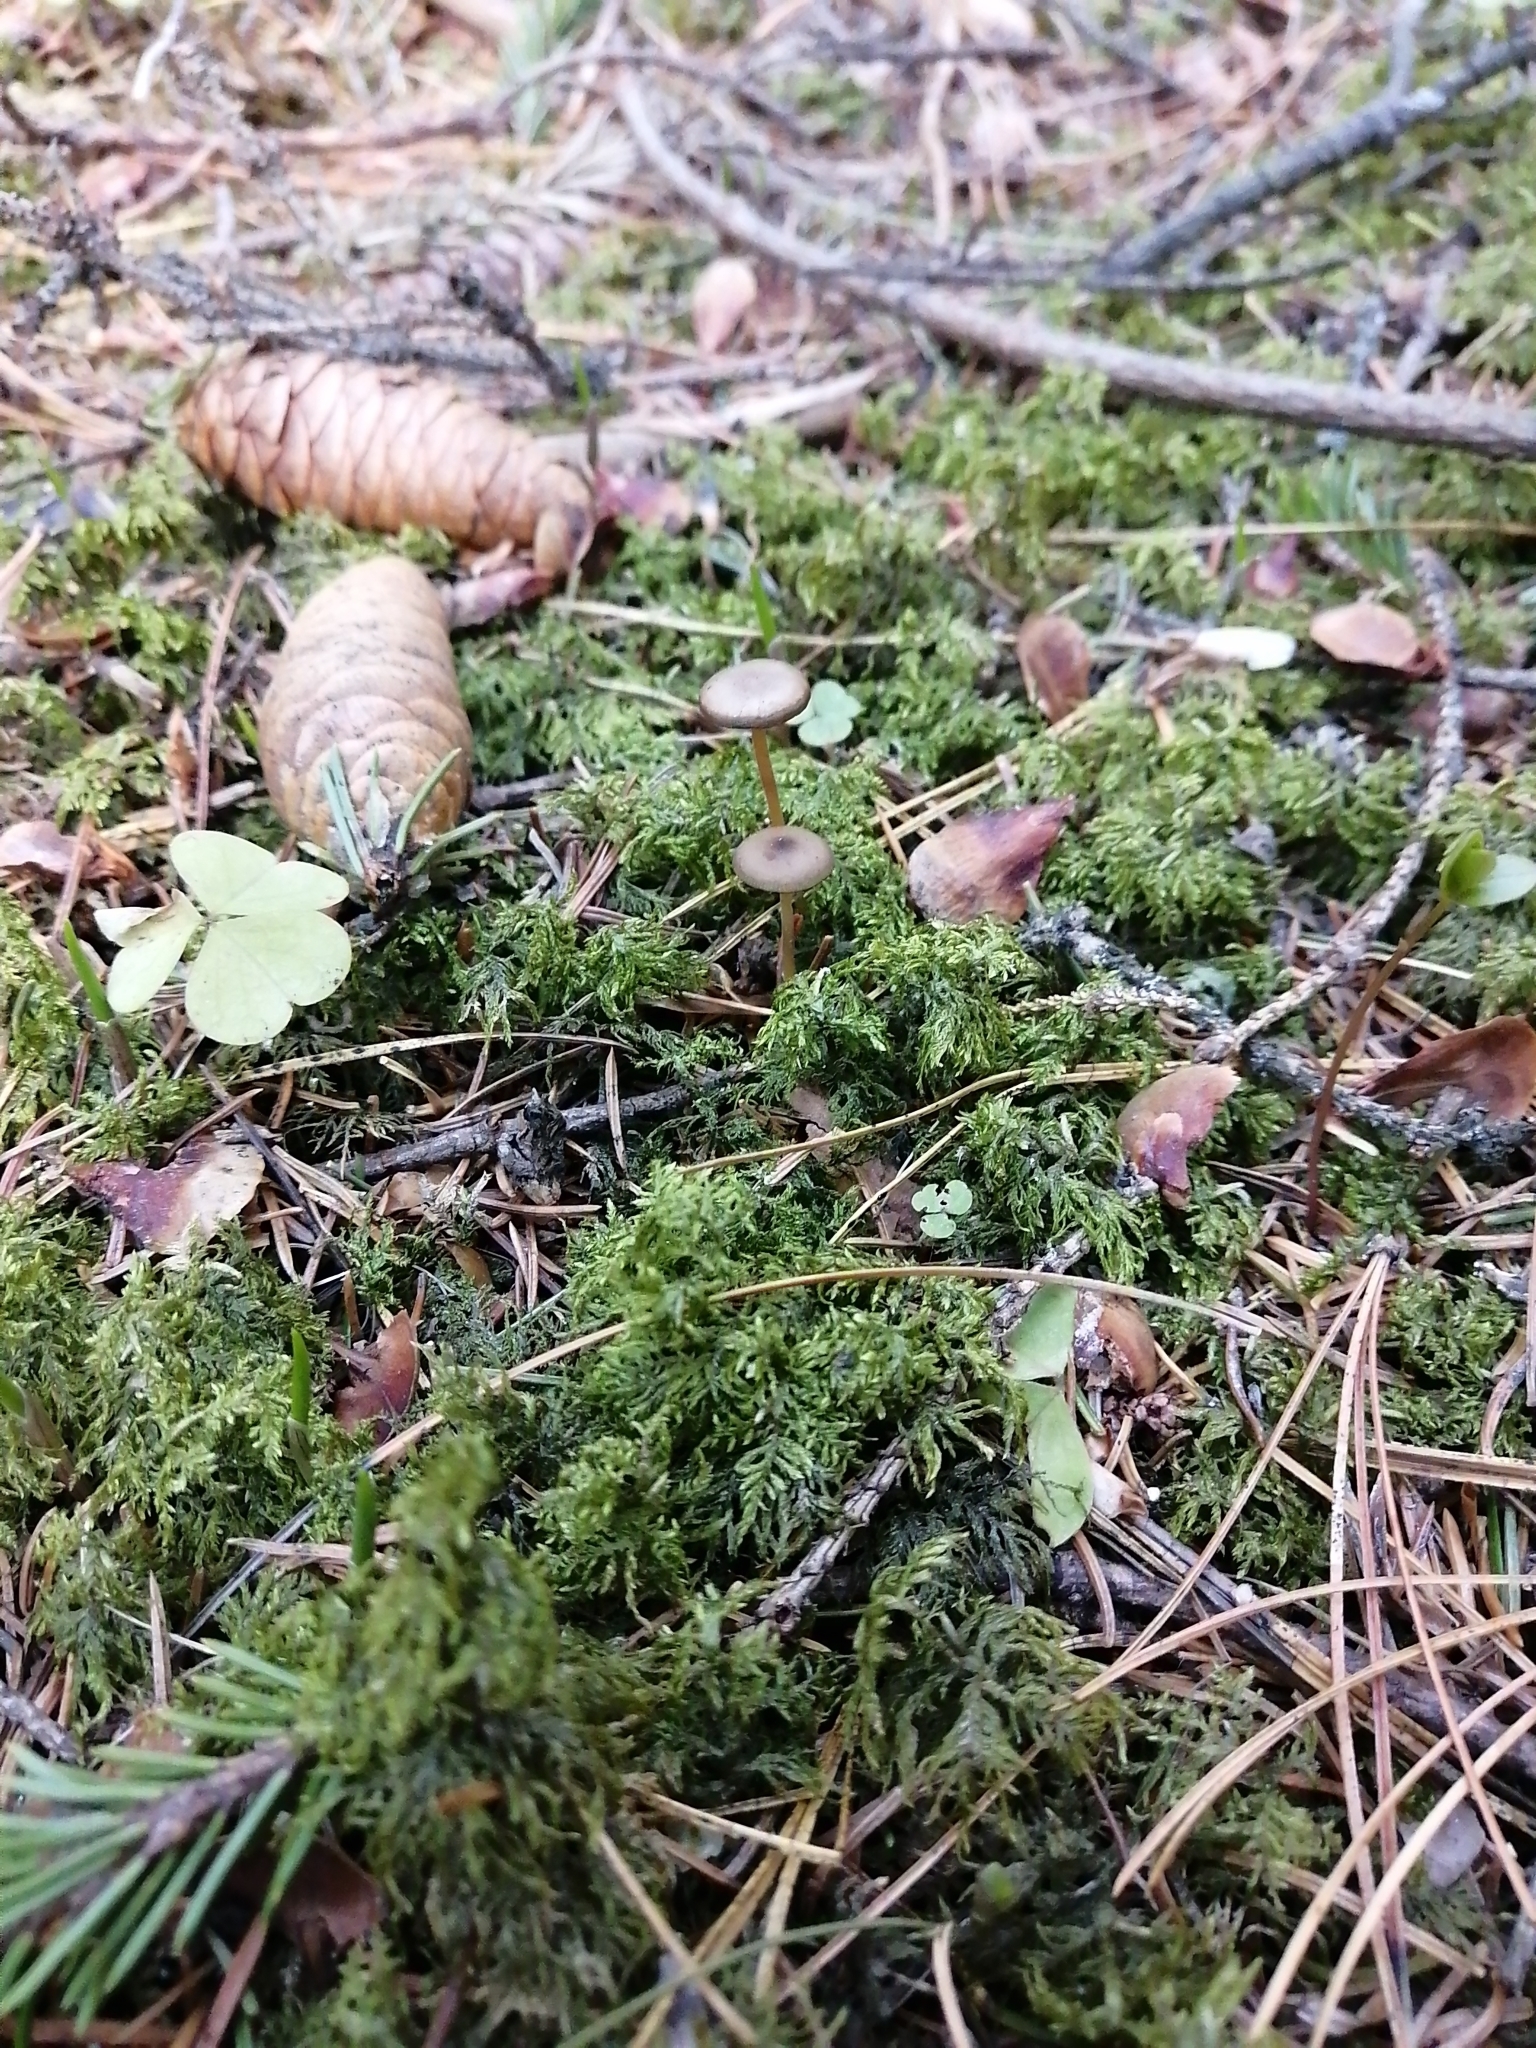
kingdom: Fungi
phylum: Basidiomycota
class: Agaricomycetes
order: Agaricales
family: Physalacriaceae
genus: Strobilurus
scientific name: Strobilurus esculentus
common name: Sprucecone cap
